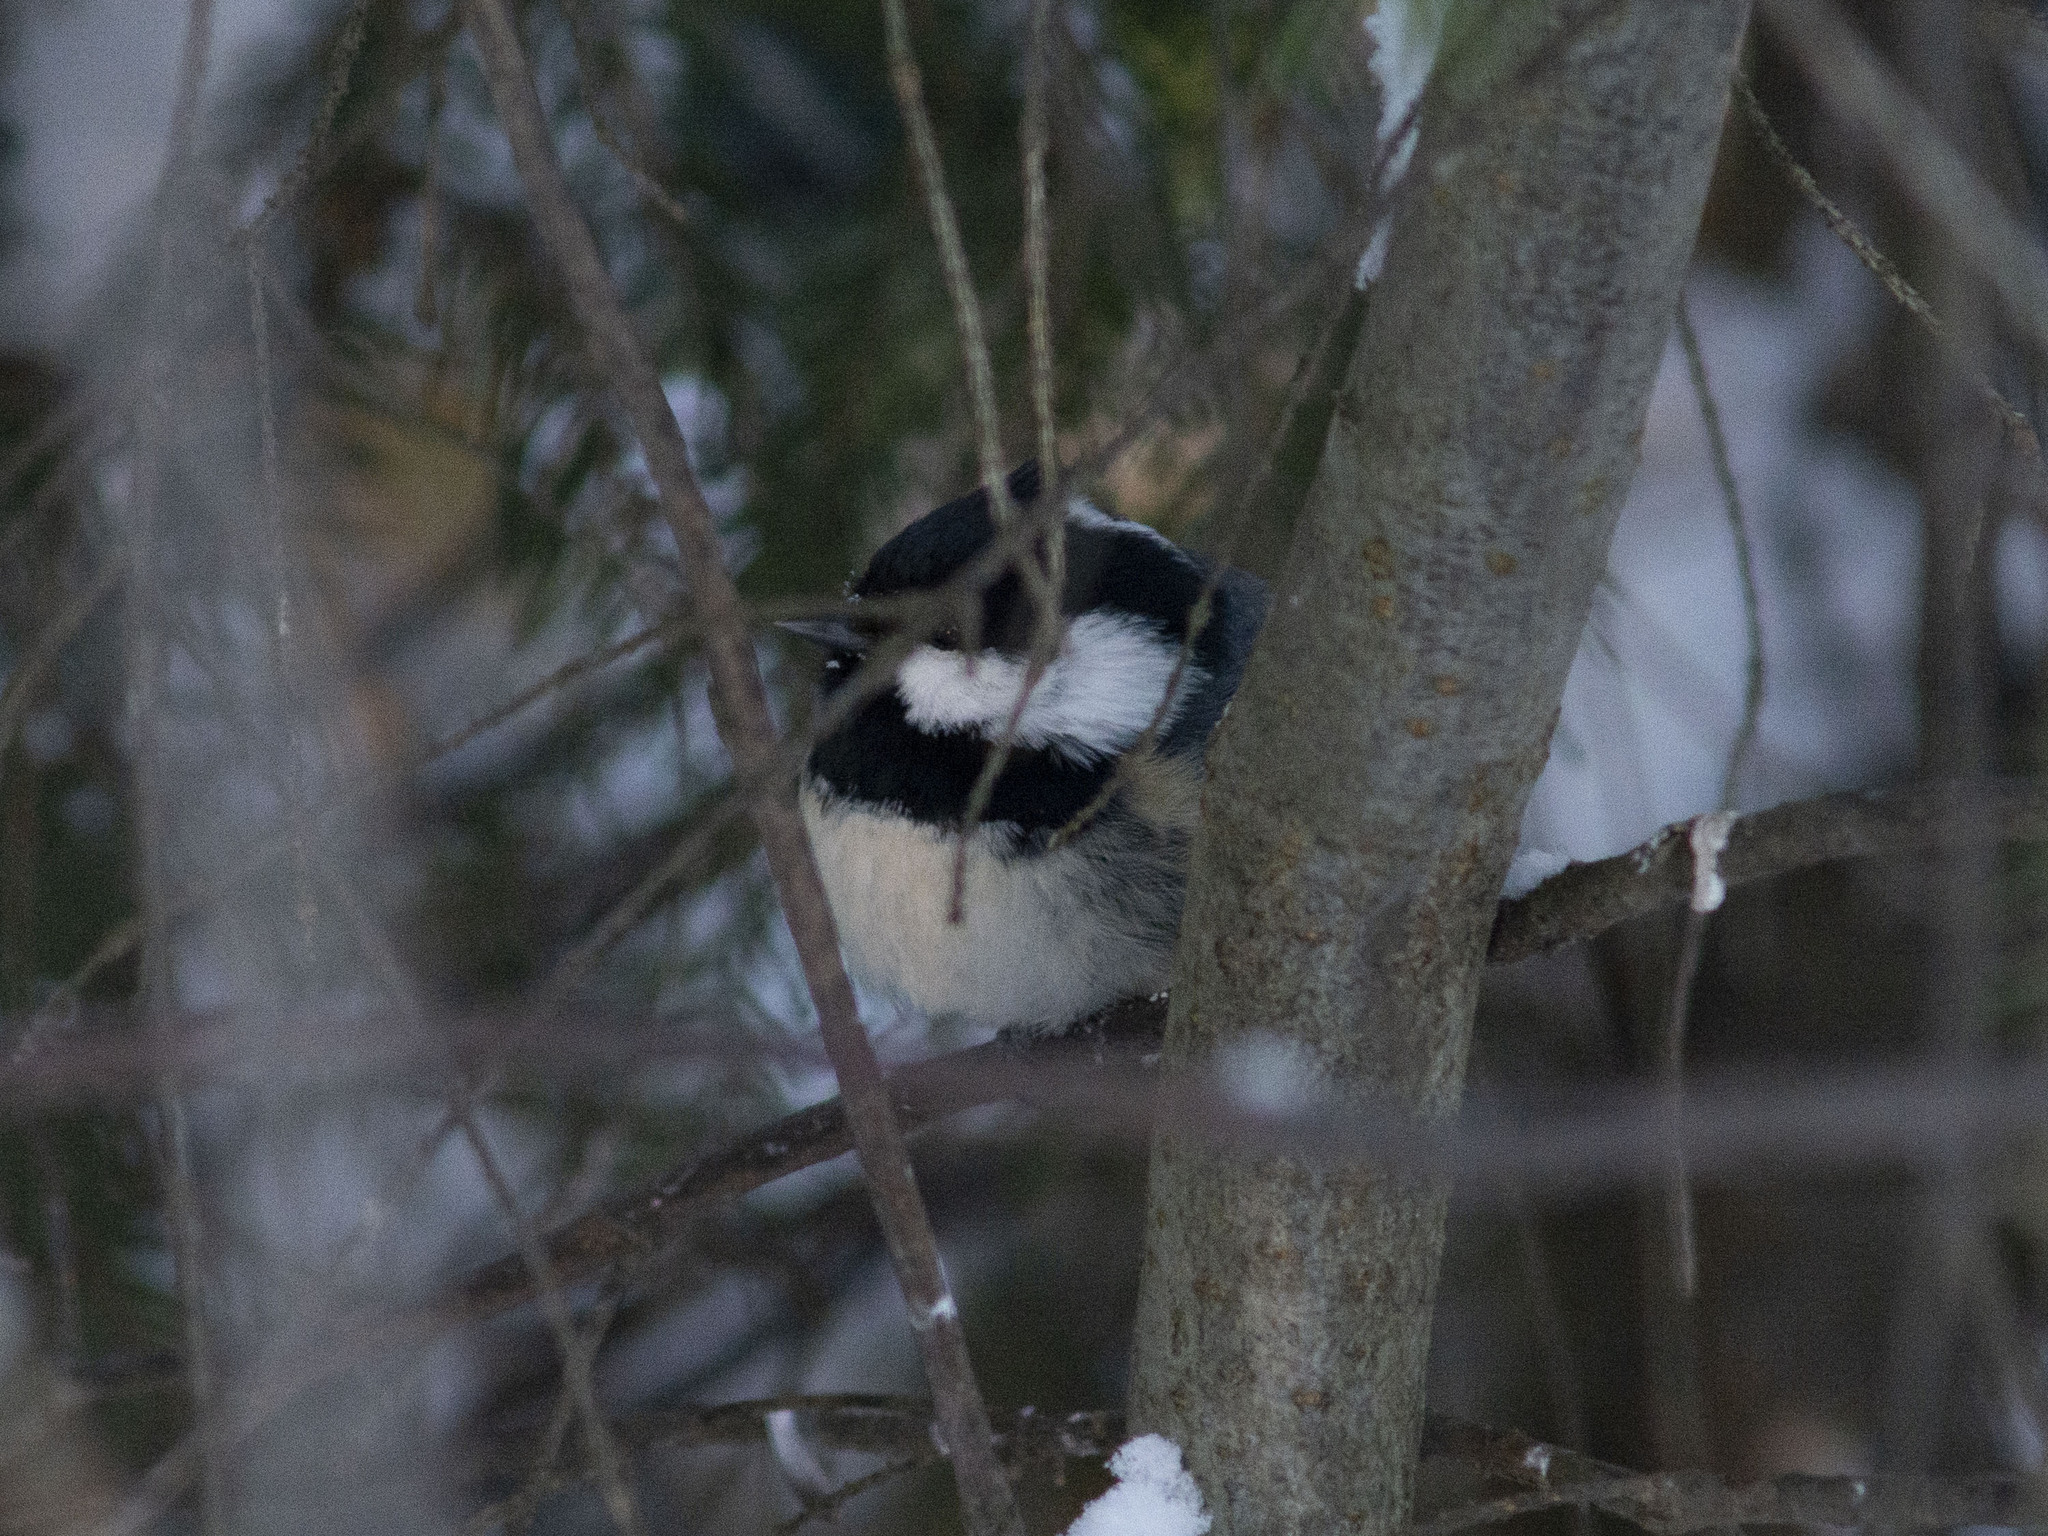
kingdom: Animalia
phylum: Chordata
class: Aves
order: Passeriformes
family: Paridae
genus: Periparus
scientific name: Periparus ater
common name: Coal tit
